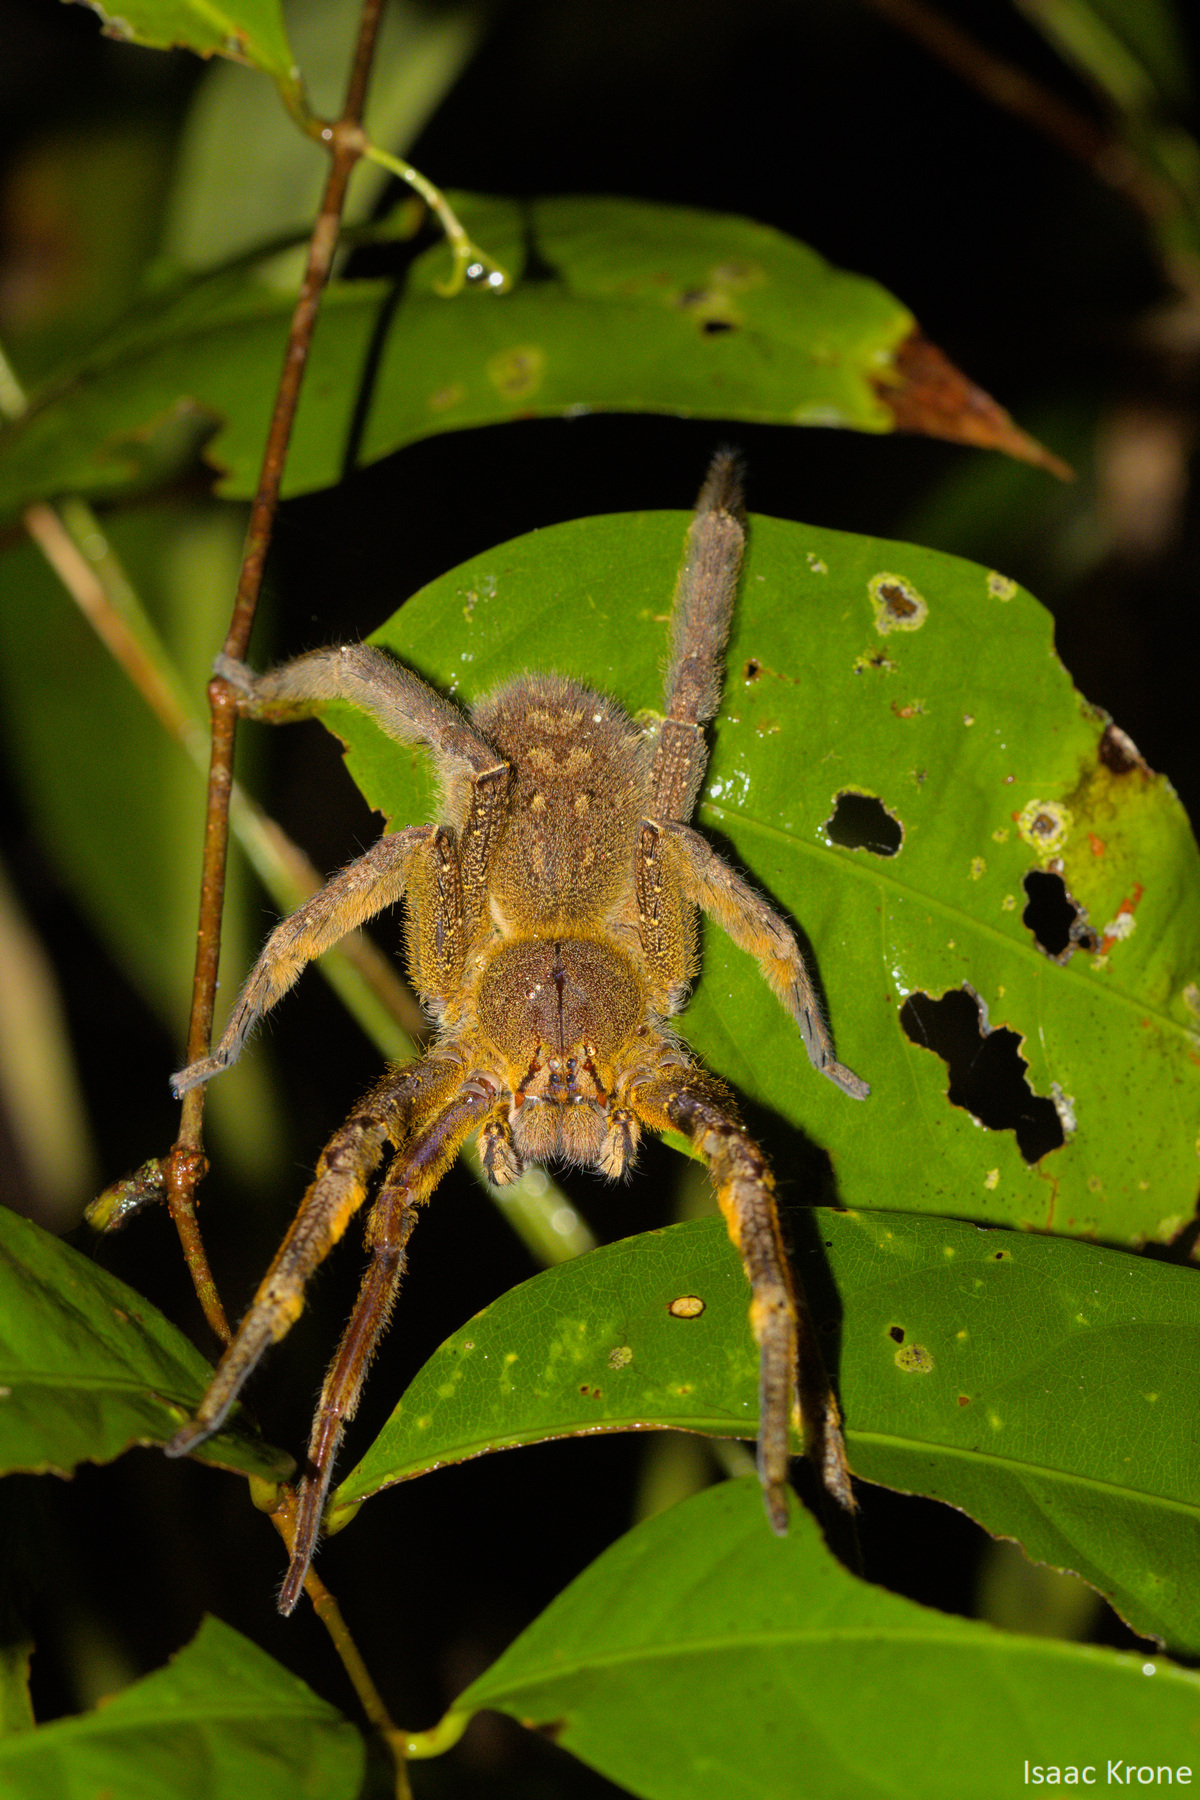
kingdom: Animalia
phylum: Arthropoda
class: Arachnida
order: Araneae
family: Ctenidae
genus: Phoneutria
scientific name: Phoneutria fera
